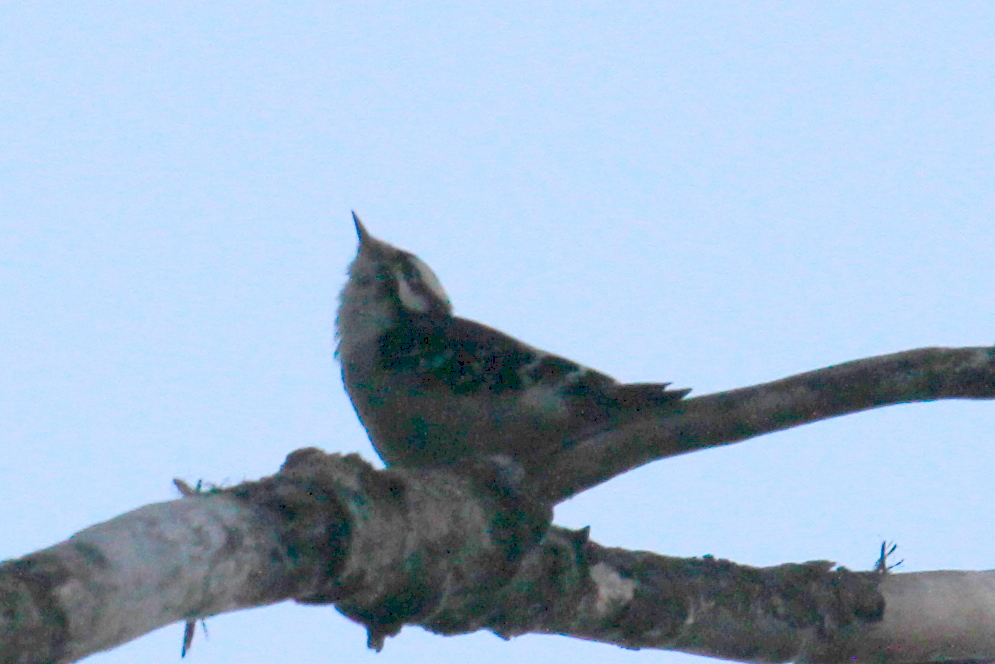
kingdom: Animalia
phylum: Chordata
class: Aves
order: Piciformes
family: Picidae
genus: Dryobates
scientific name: Dryobates pubescens
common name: Downy woodpecker
